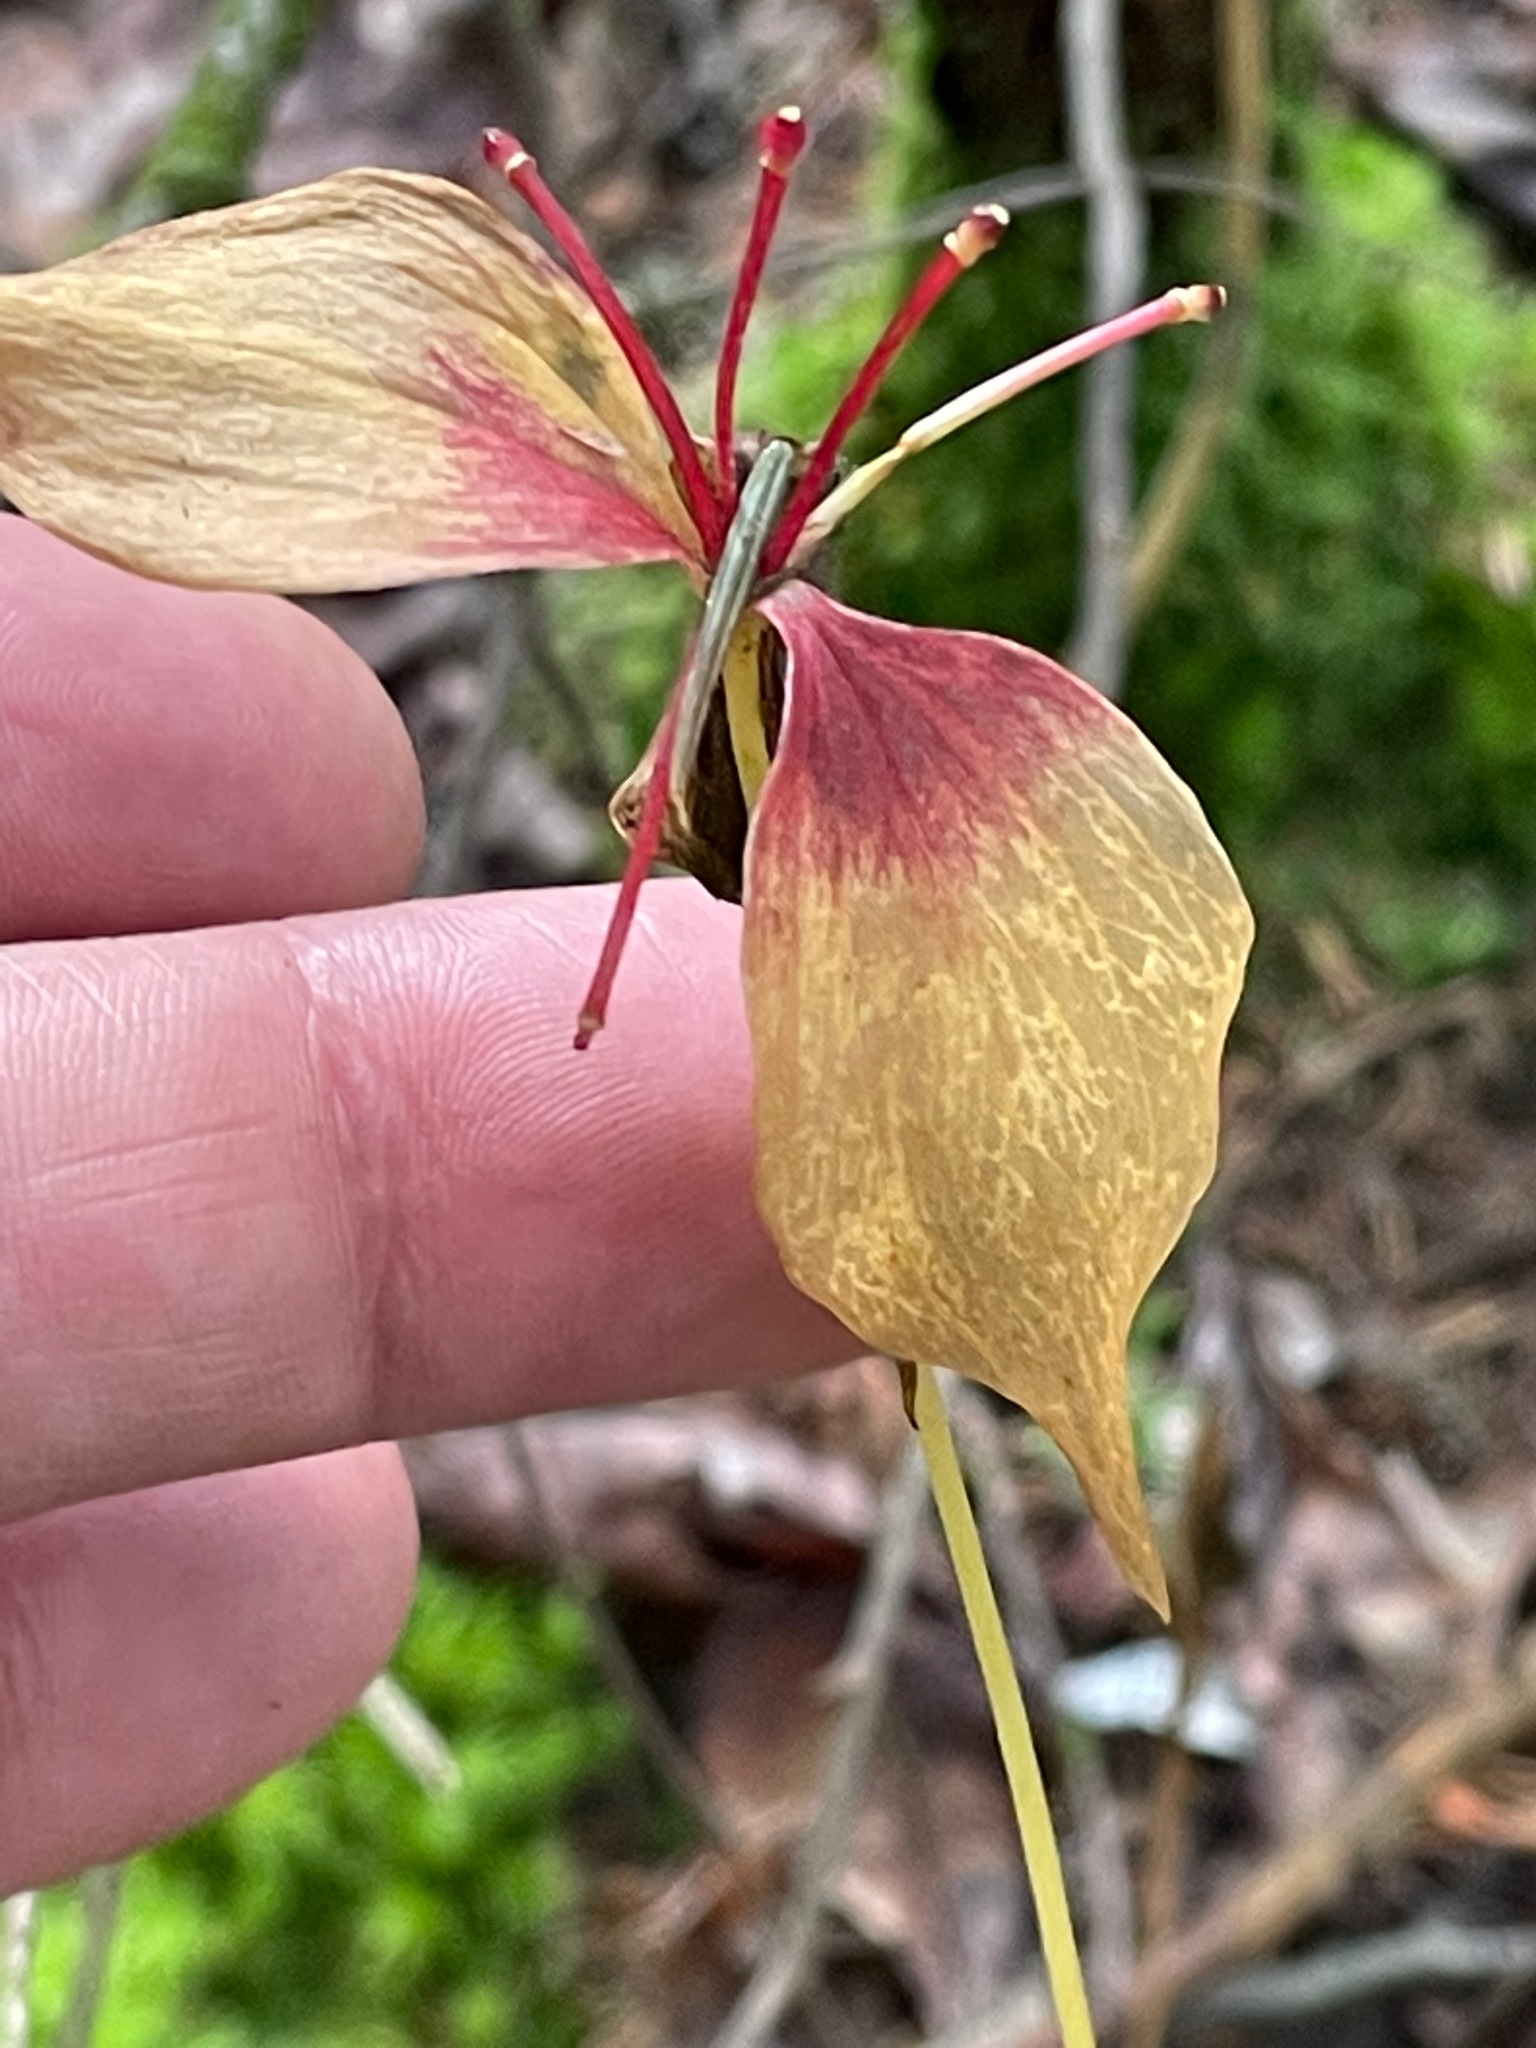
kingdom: Plantae
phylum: Tracheophyta
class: Liliopsida
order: Liliales
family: Liliaceae
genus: Medeola
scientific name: Medeola virginiana
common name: Indian cucumber-root
